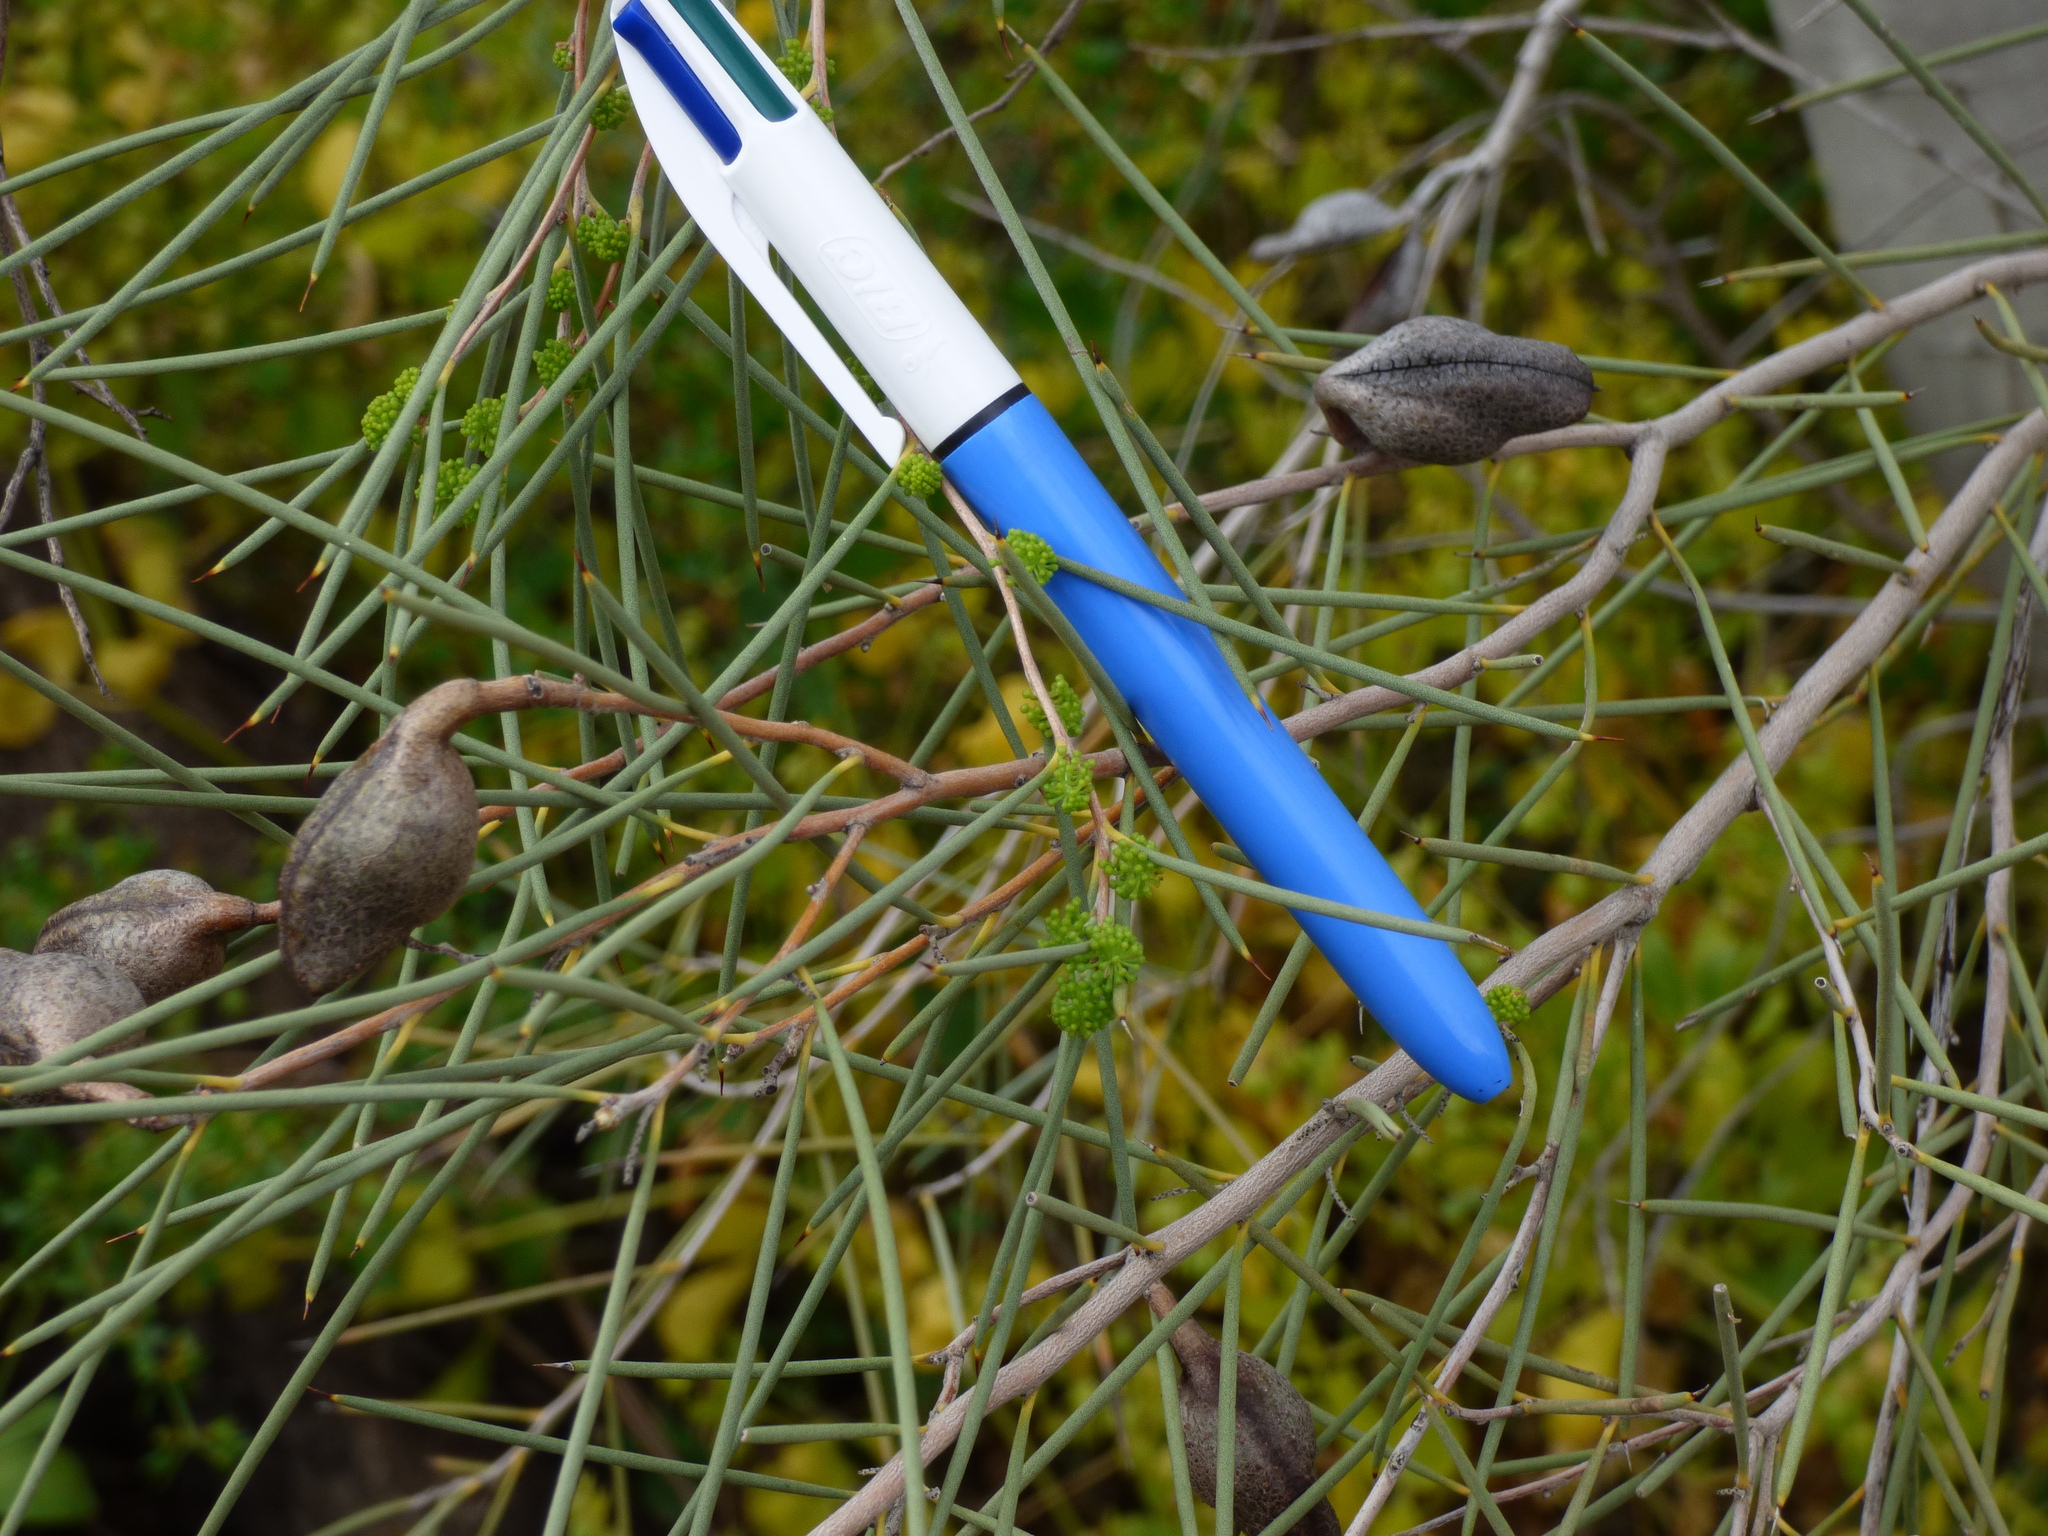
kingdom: Plantae
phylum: Tracheophyta
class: Magnoliopsida
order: Proteales
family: Proteaceae
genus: Hakea
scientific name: Hakea leucoptera
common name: Pinbush
